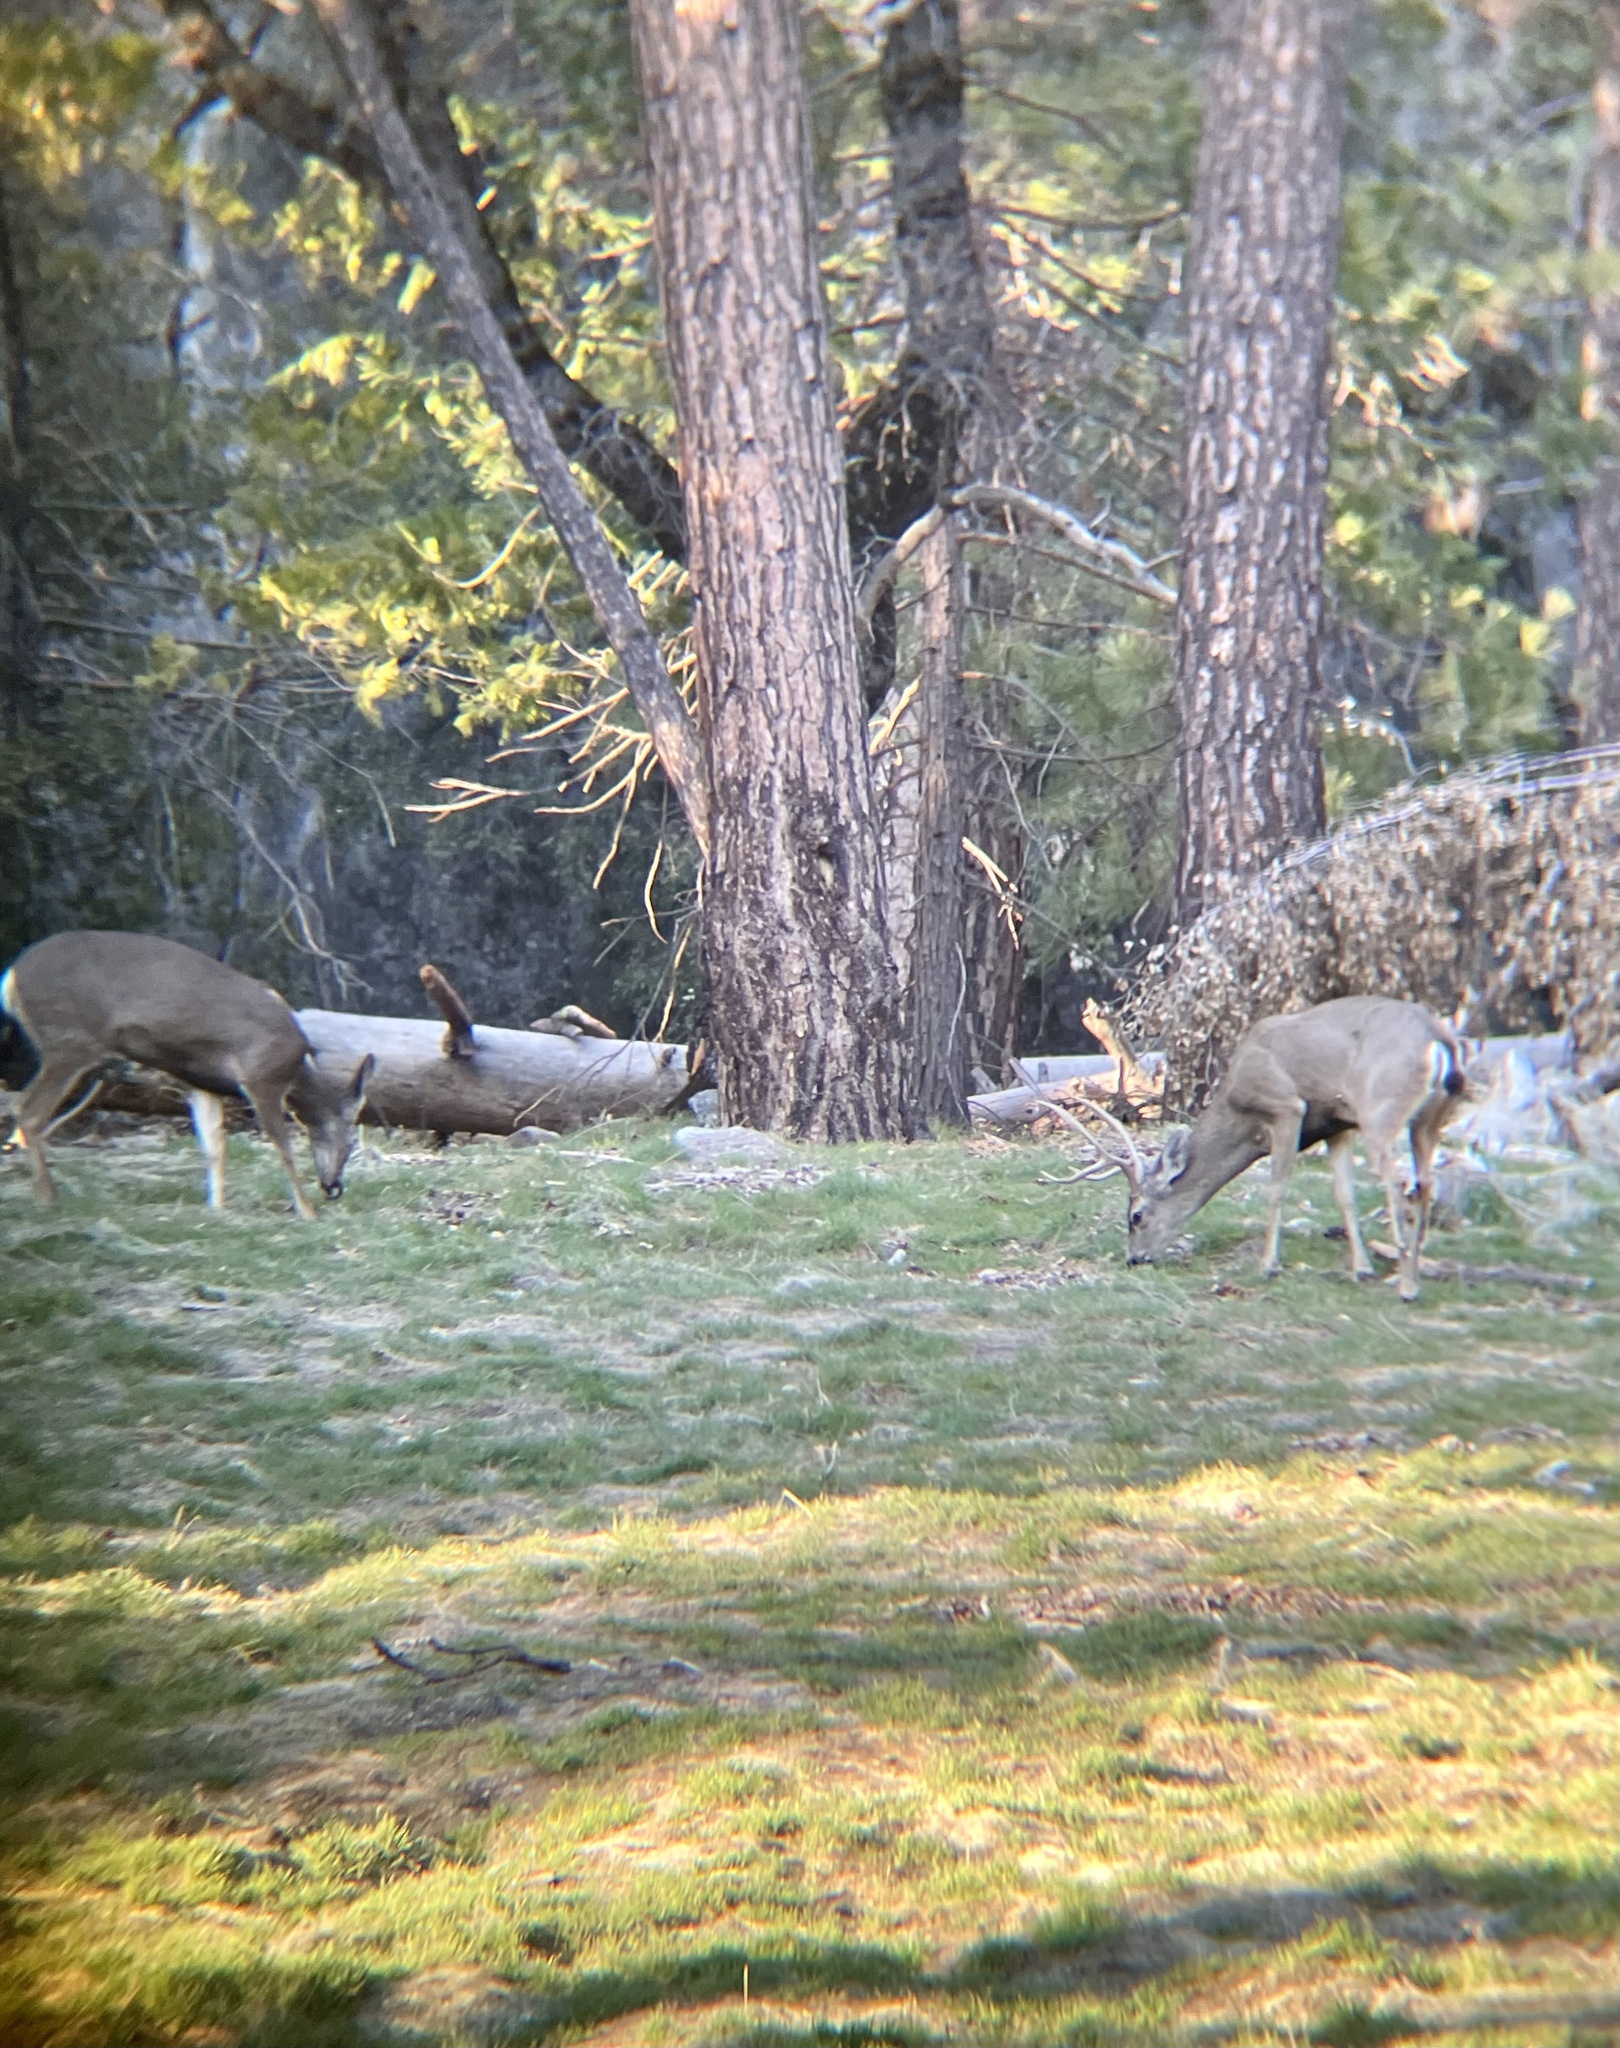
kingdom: Animalia
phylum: Chordata
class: Mammalia
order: Artiodactyla
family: Cervidae
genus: Odocoileus
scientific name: Odocoileus hemionus
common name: Mule deer
